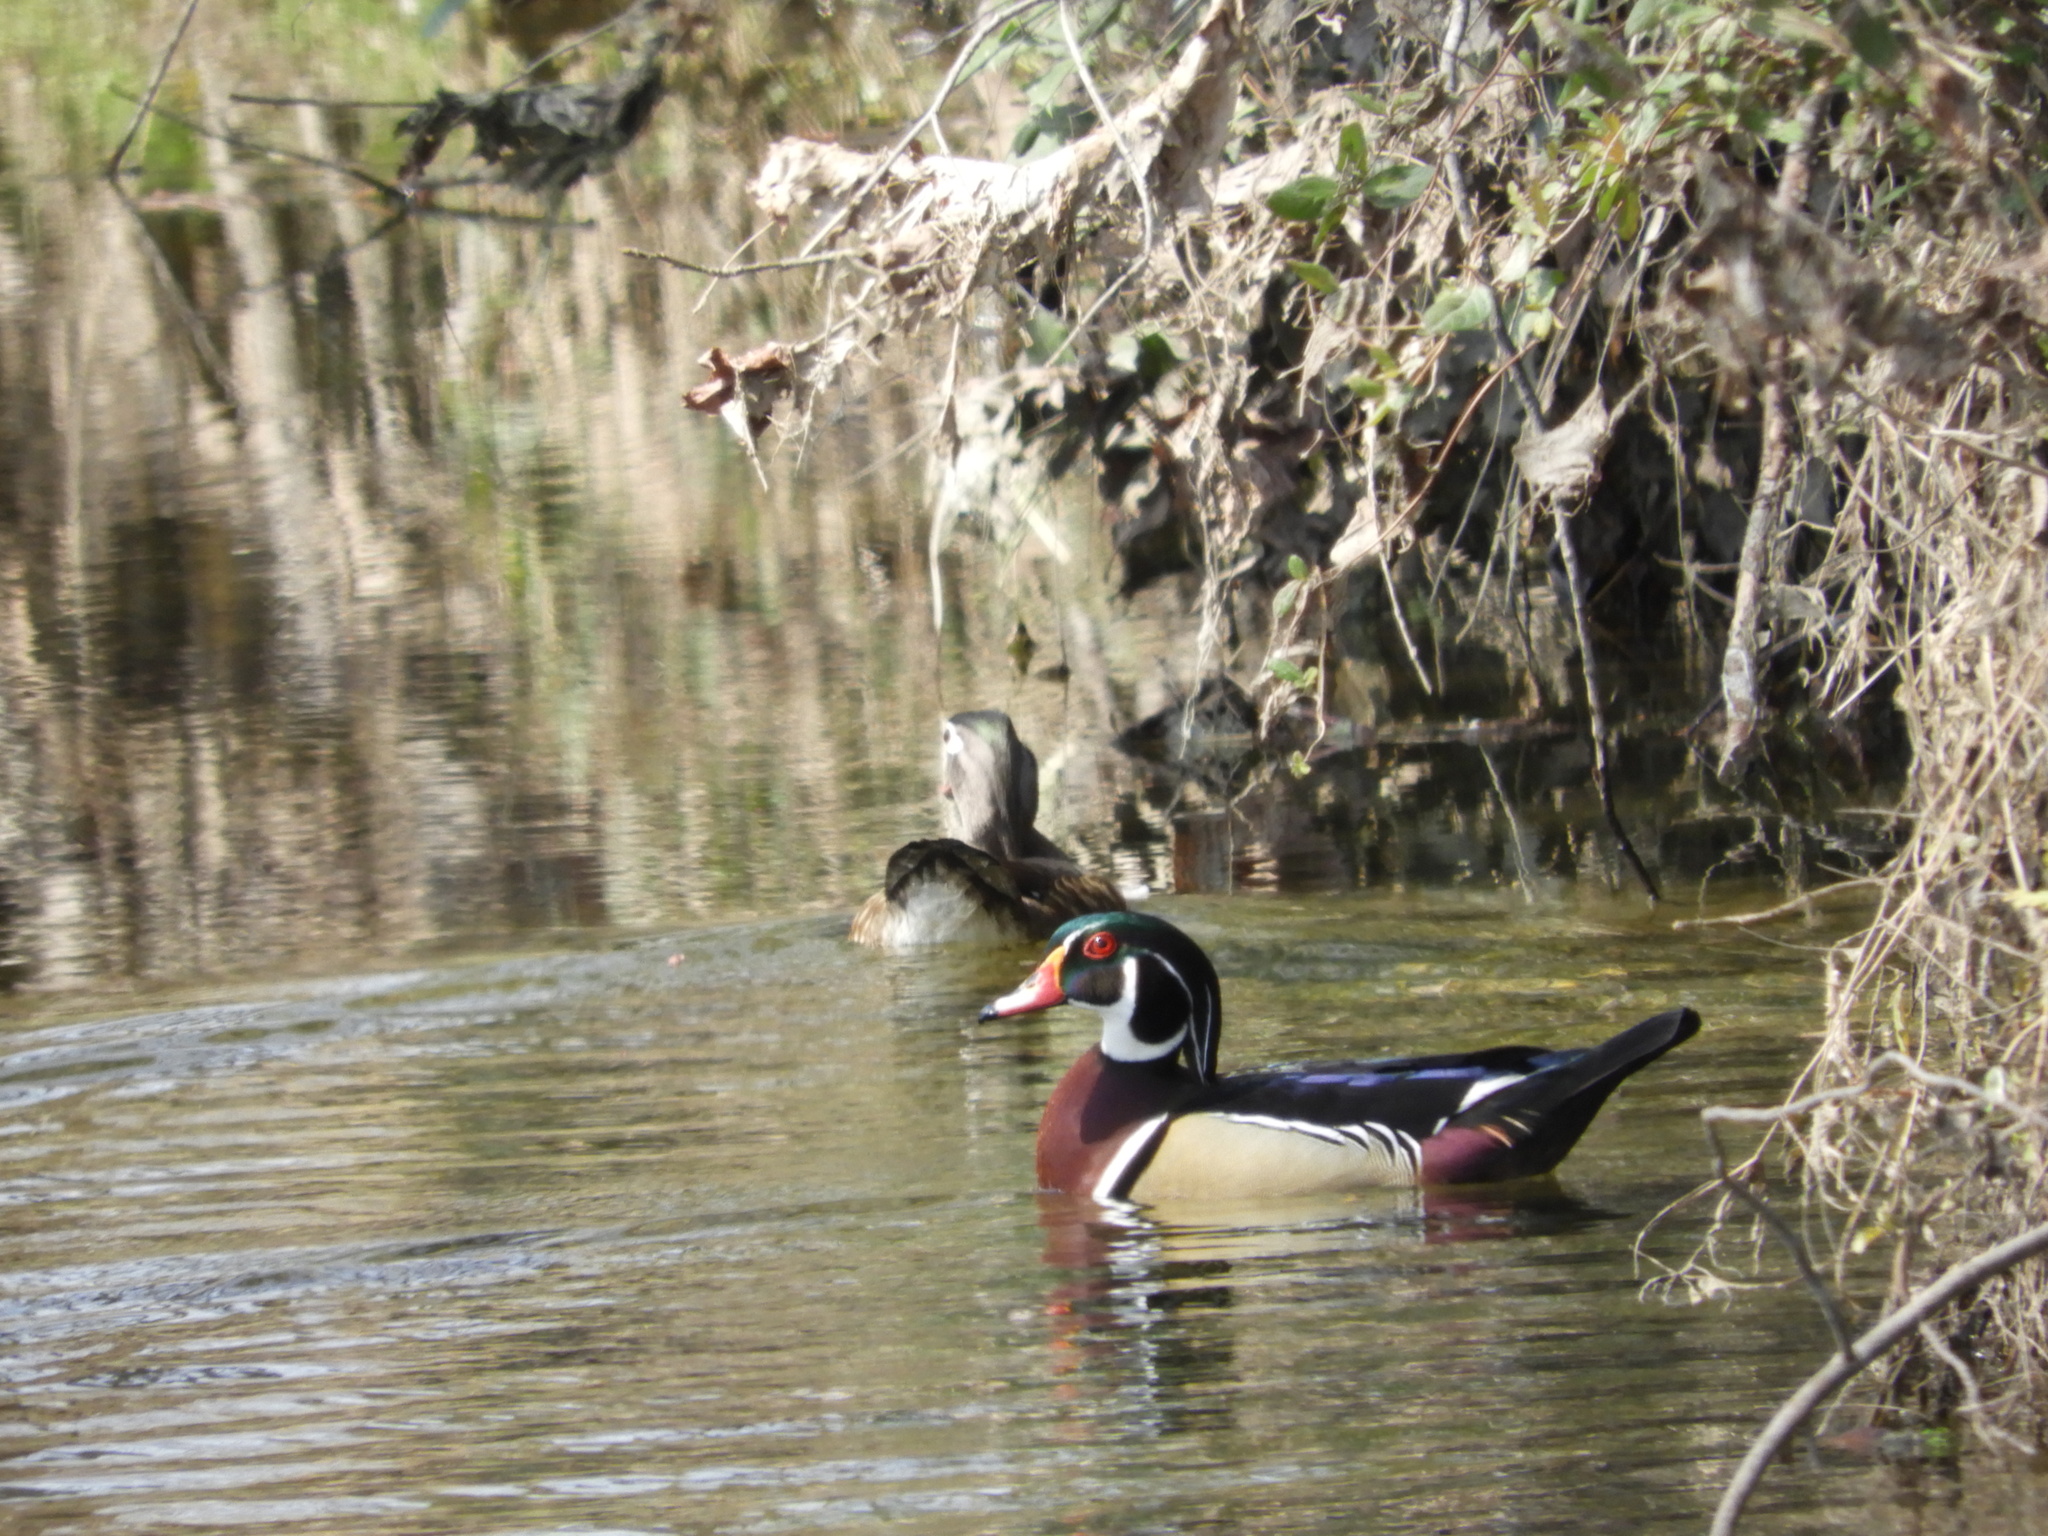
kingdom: Animalia
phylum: Chordata
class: Aves
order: Anseriformes
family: Anatidae
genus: Aix
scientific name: Aix sponsa
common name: Wood duck
